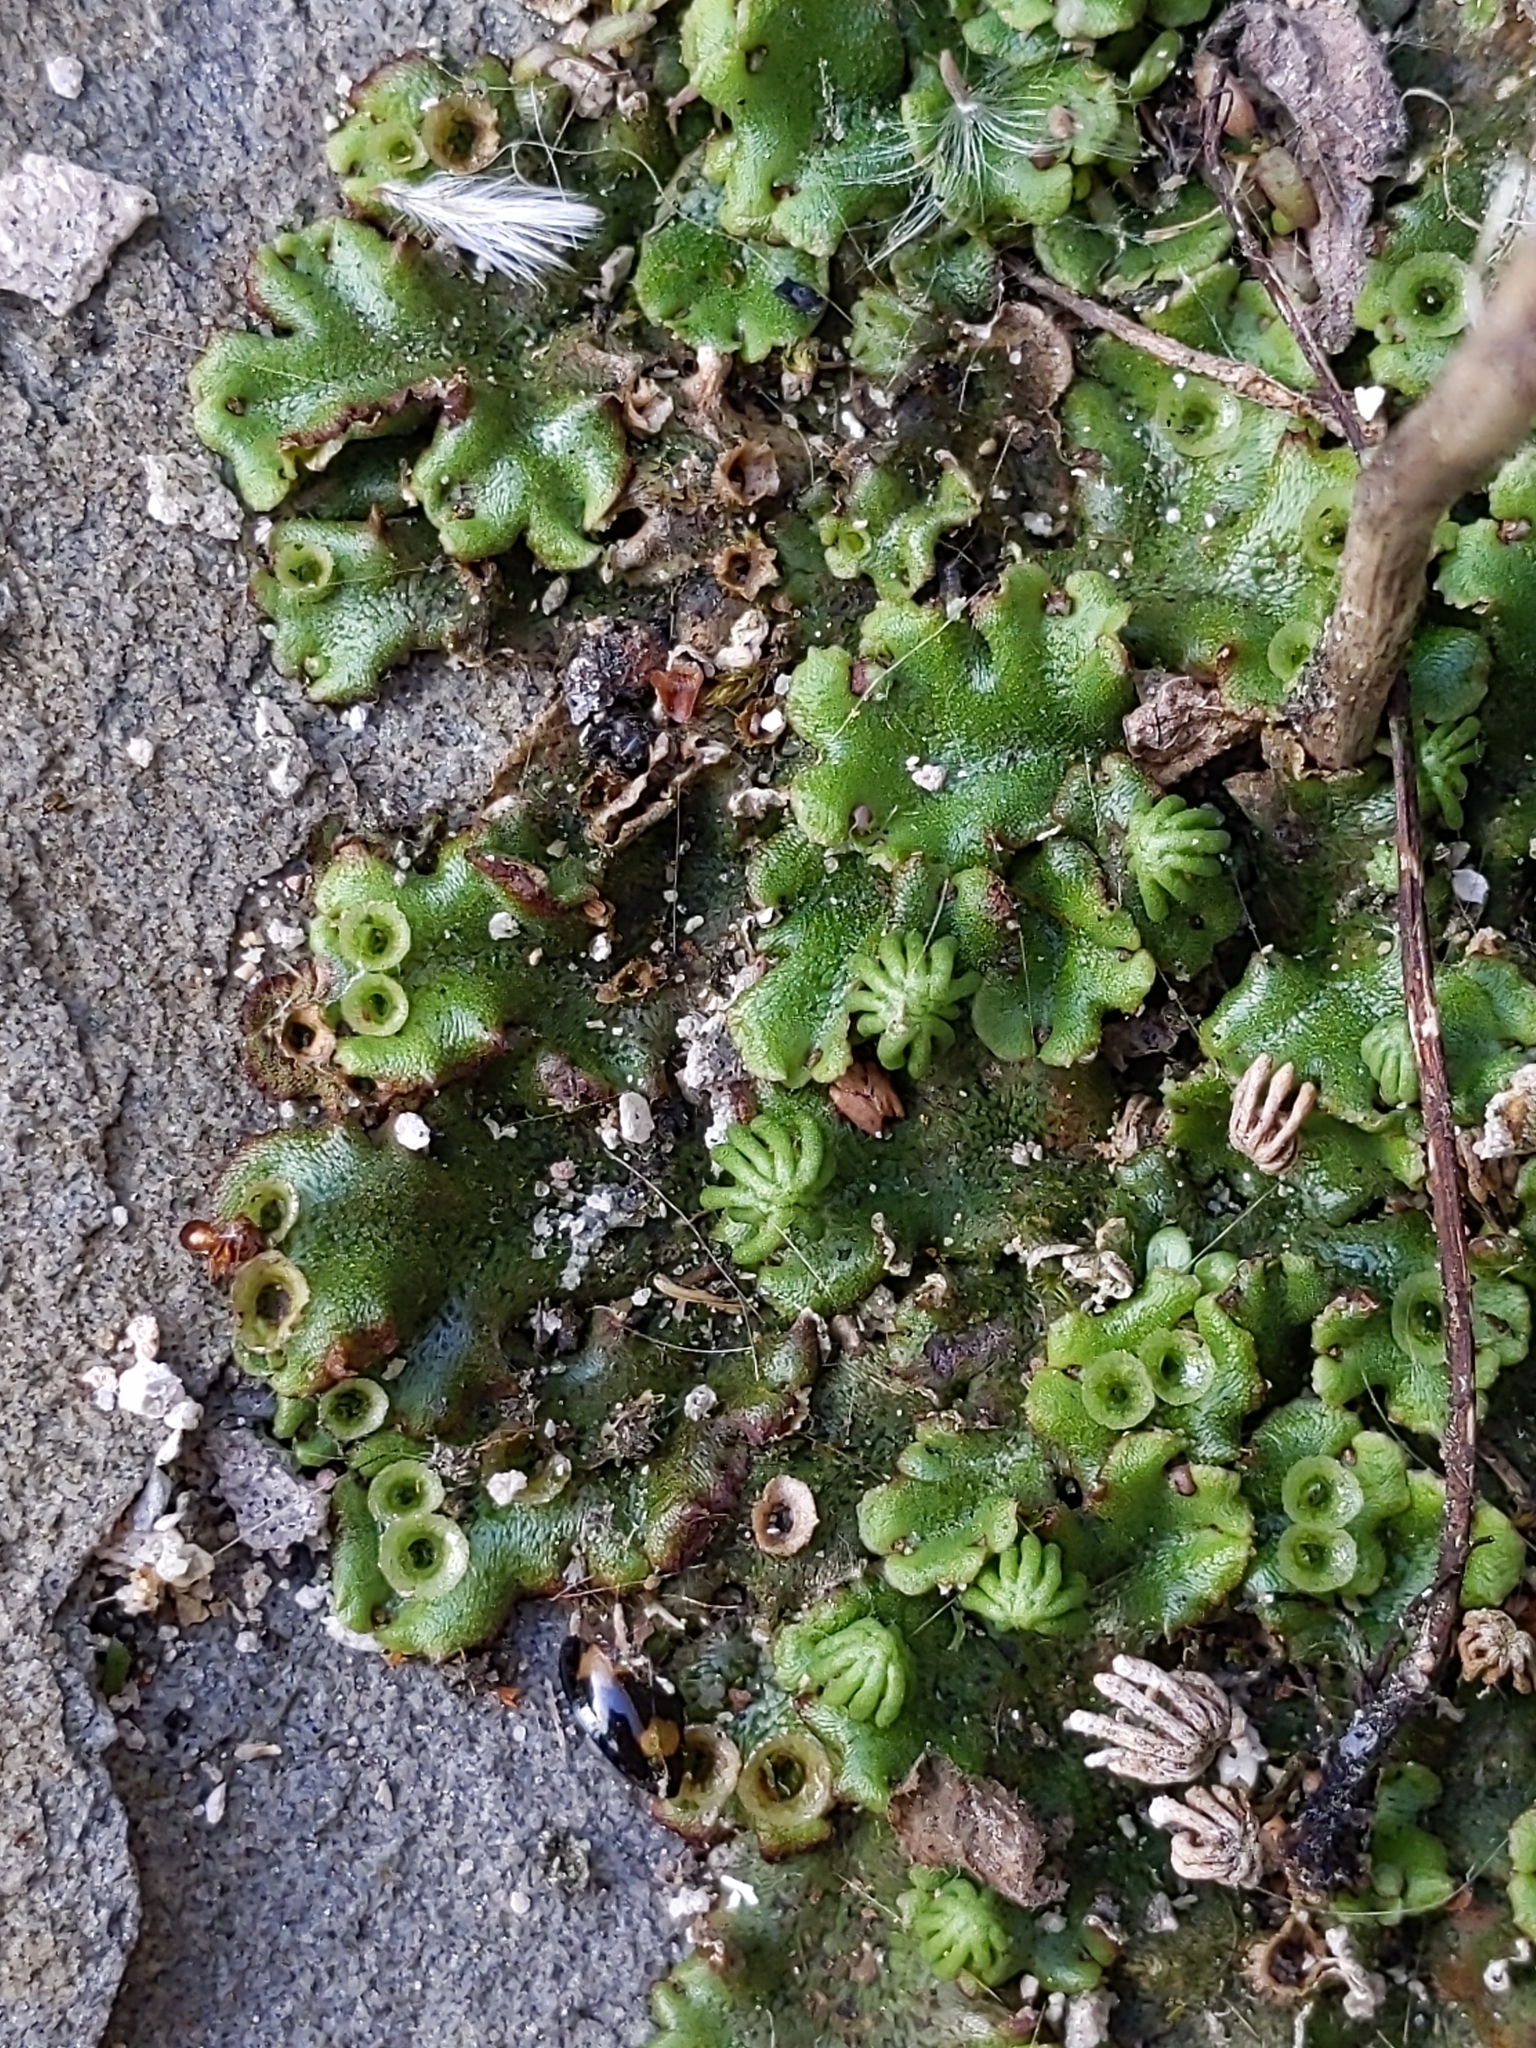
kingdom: Plantae
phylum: Marchantiophyta
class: Marchantiopsida
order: Marchantiales
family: Marchantiaceae
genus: Marchantia
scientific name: Marchantia polymorpha
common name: Common liverwort
